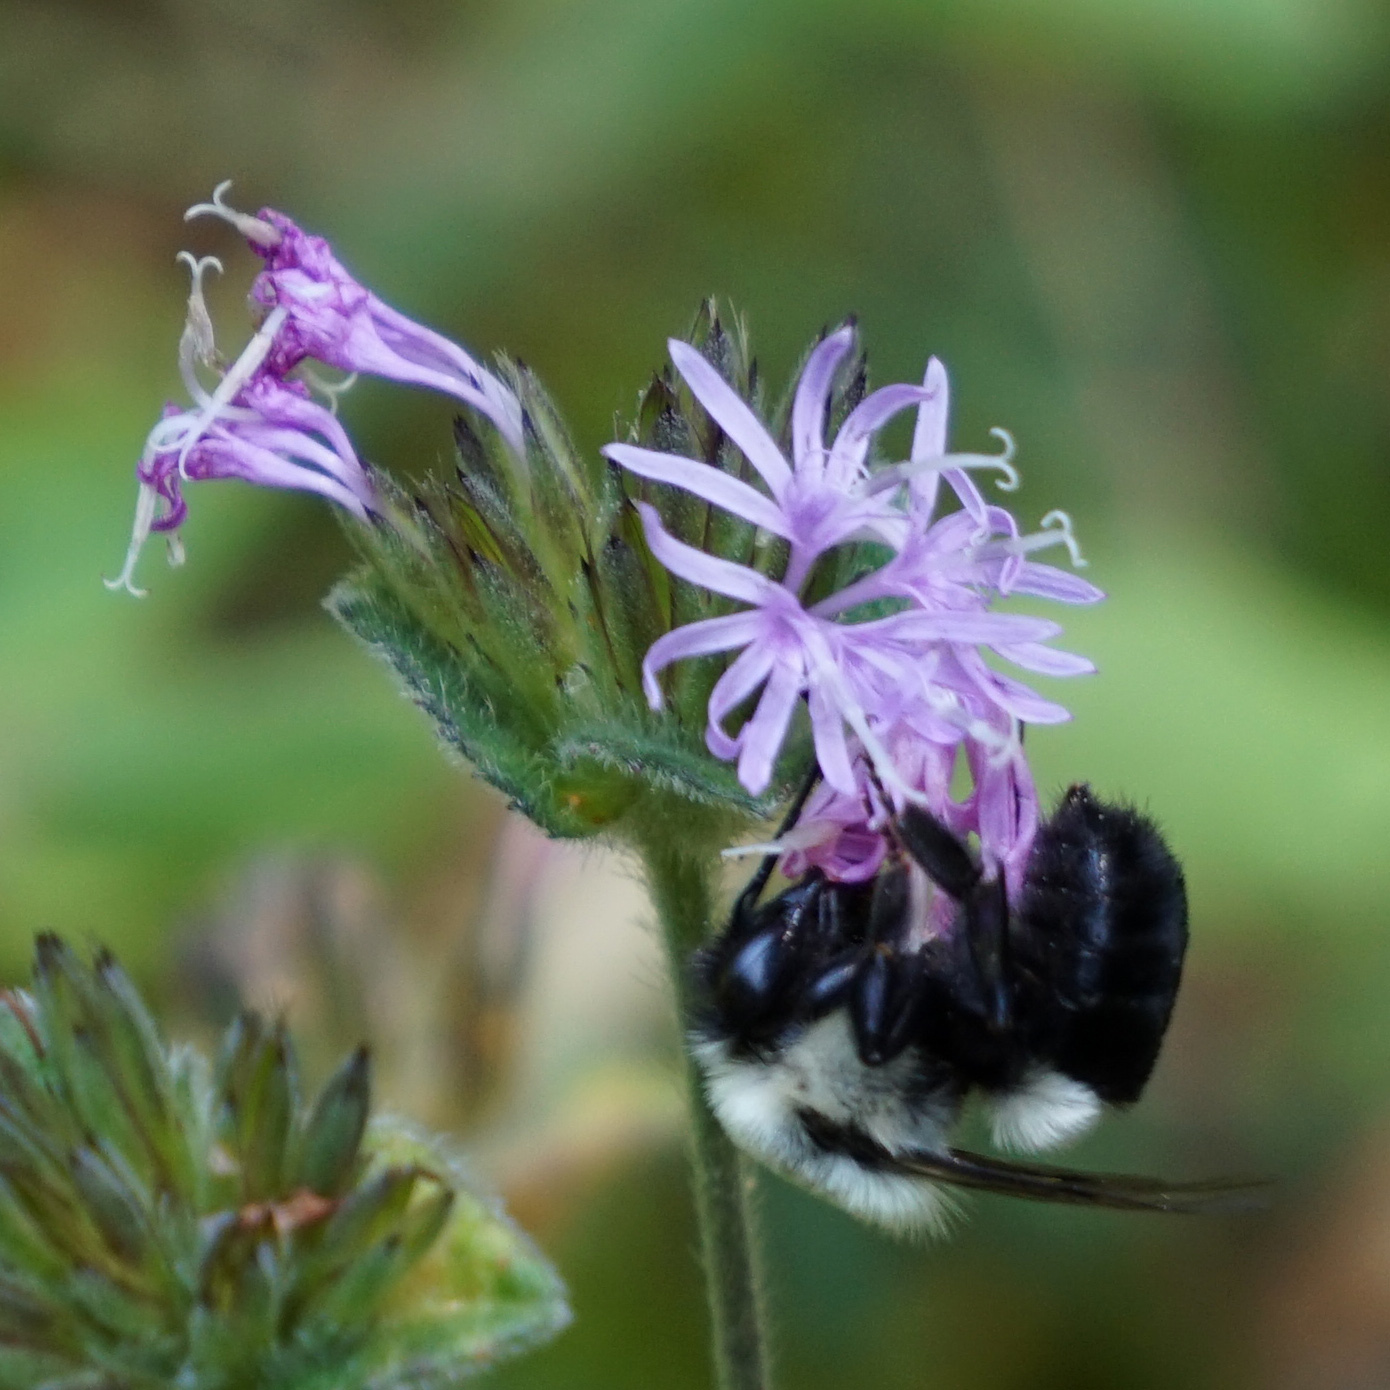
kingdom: Animalia
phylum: Arthropoda
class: Insecta
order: Hymenoptera
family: Apidae
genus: Bombus
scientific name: Bombus impatiens
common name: Common eastern bumble bee
